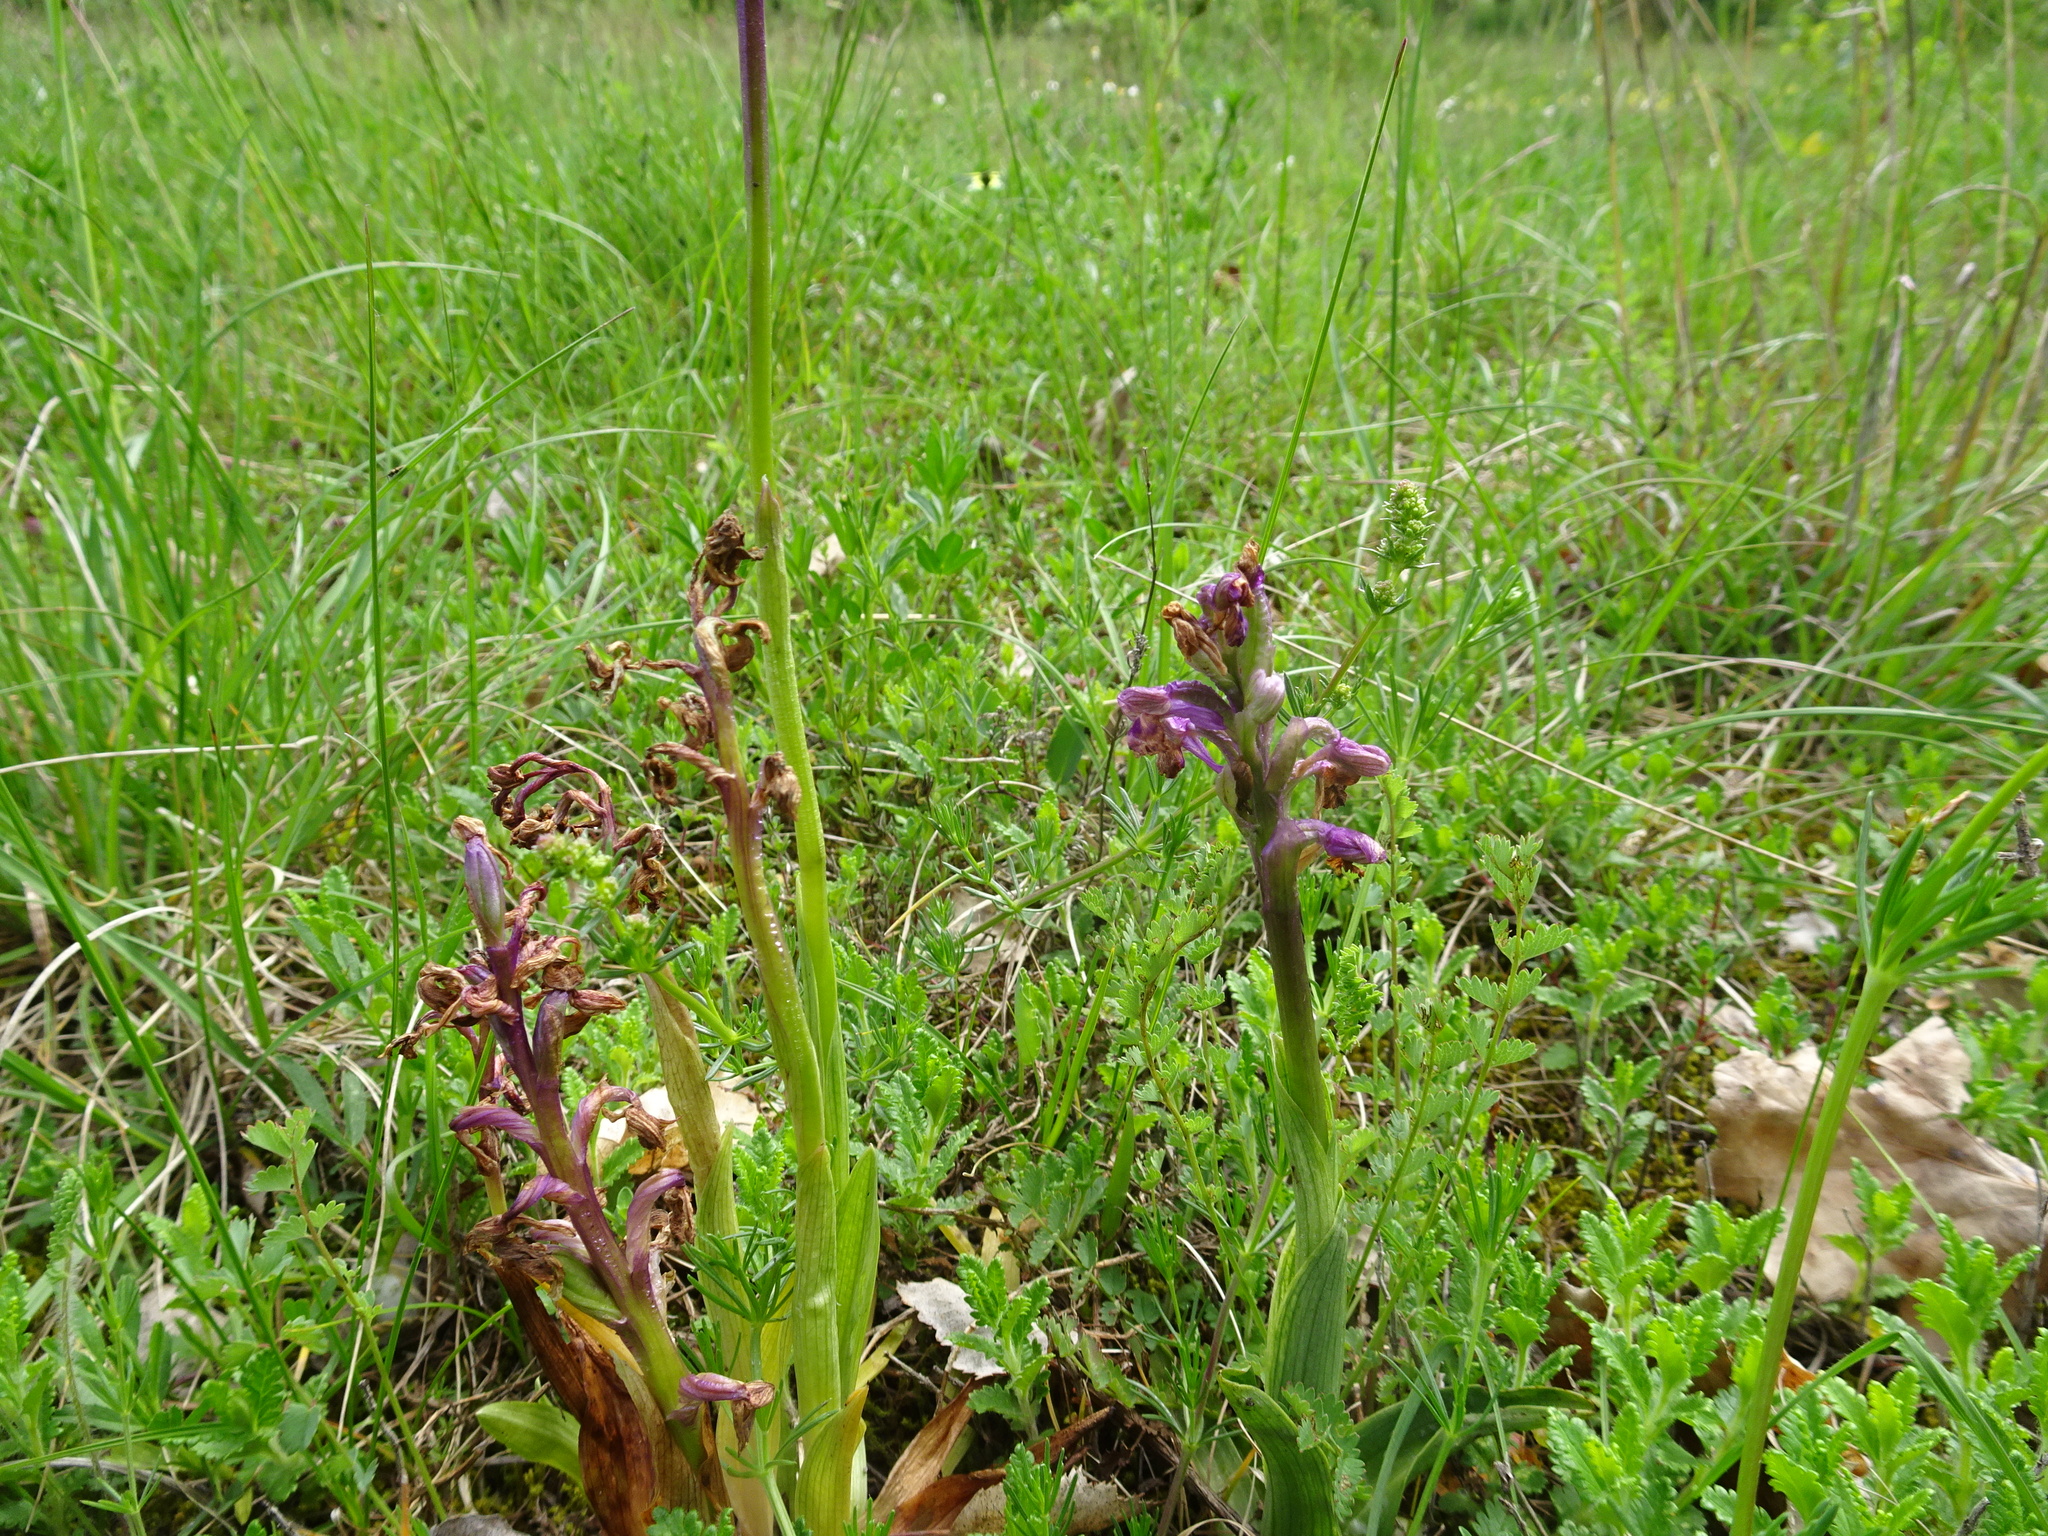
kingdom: Plantae
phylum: Tracheophyta
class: Liliopsida
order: Asparagales
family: Orchidaceae
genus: Anacamptis
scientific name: Anacamptis morio
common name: Green-winged orchid
